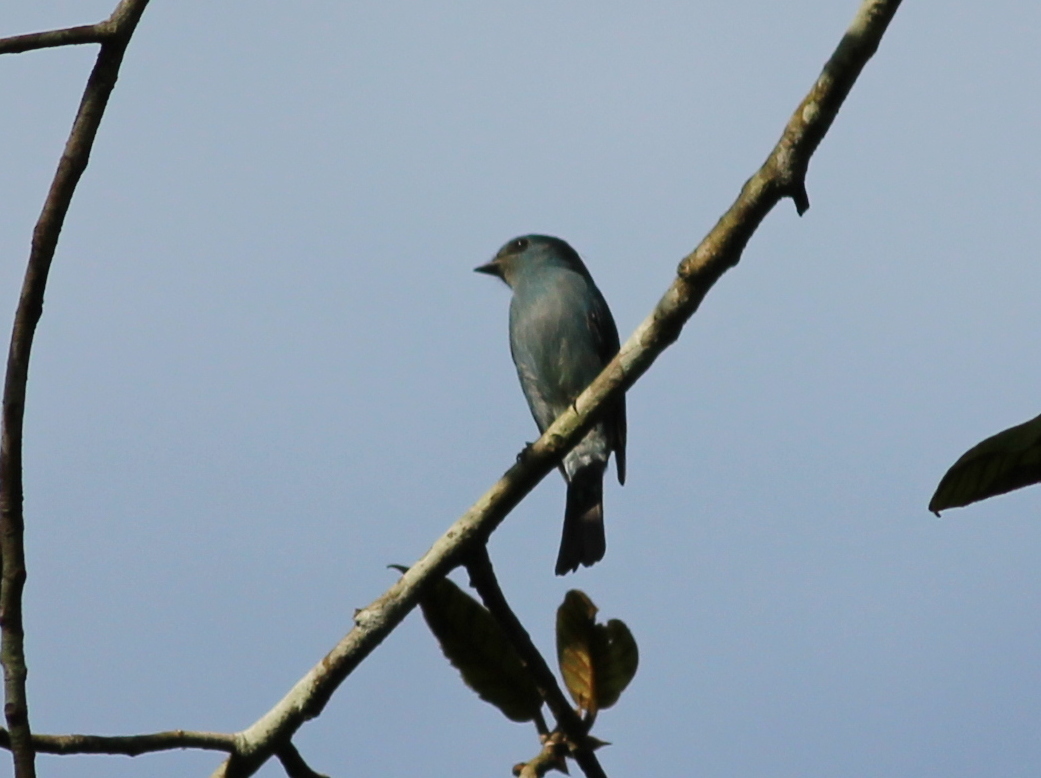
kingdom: Animalia
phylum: Chordata
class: Aves
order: Passeriformes
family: Muscicapidae
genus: Eumyias
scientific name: Eumyias thalassinus
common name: Verditer flycatcher
